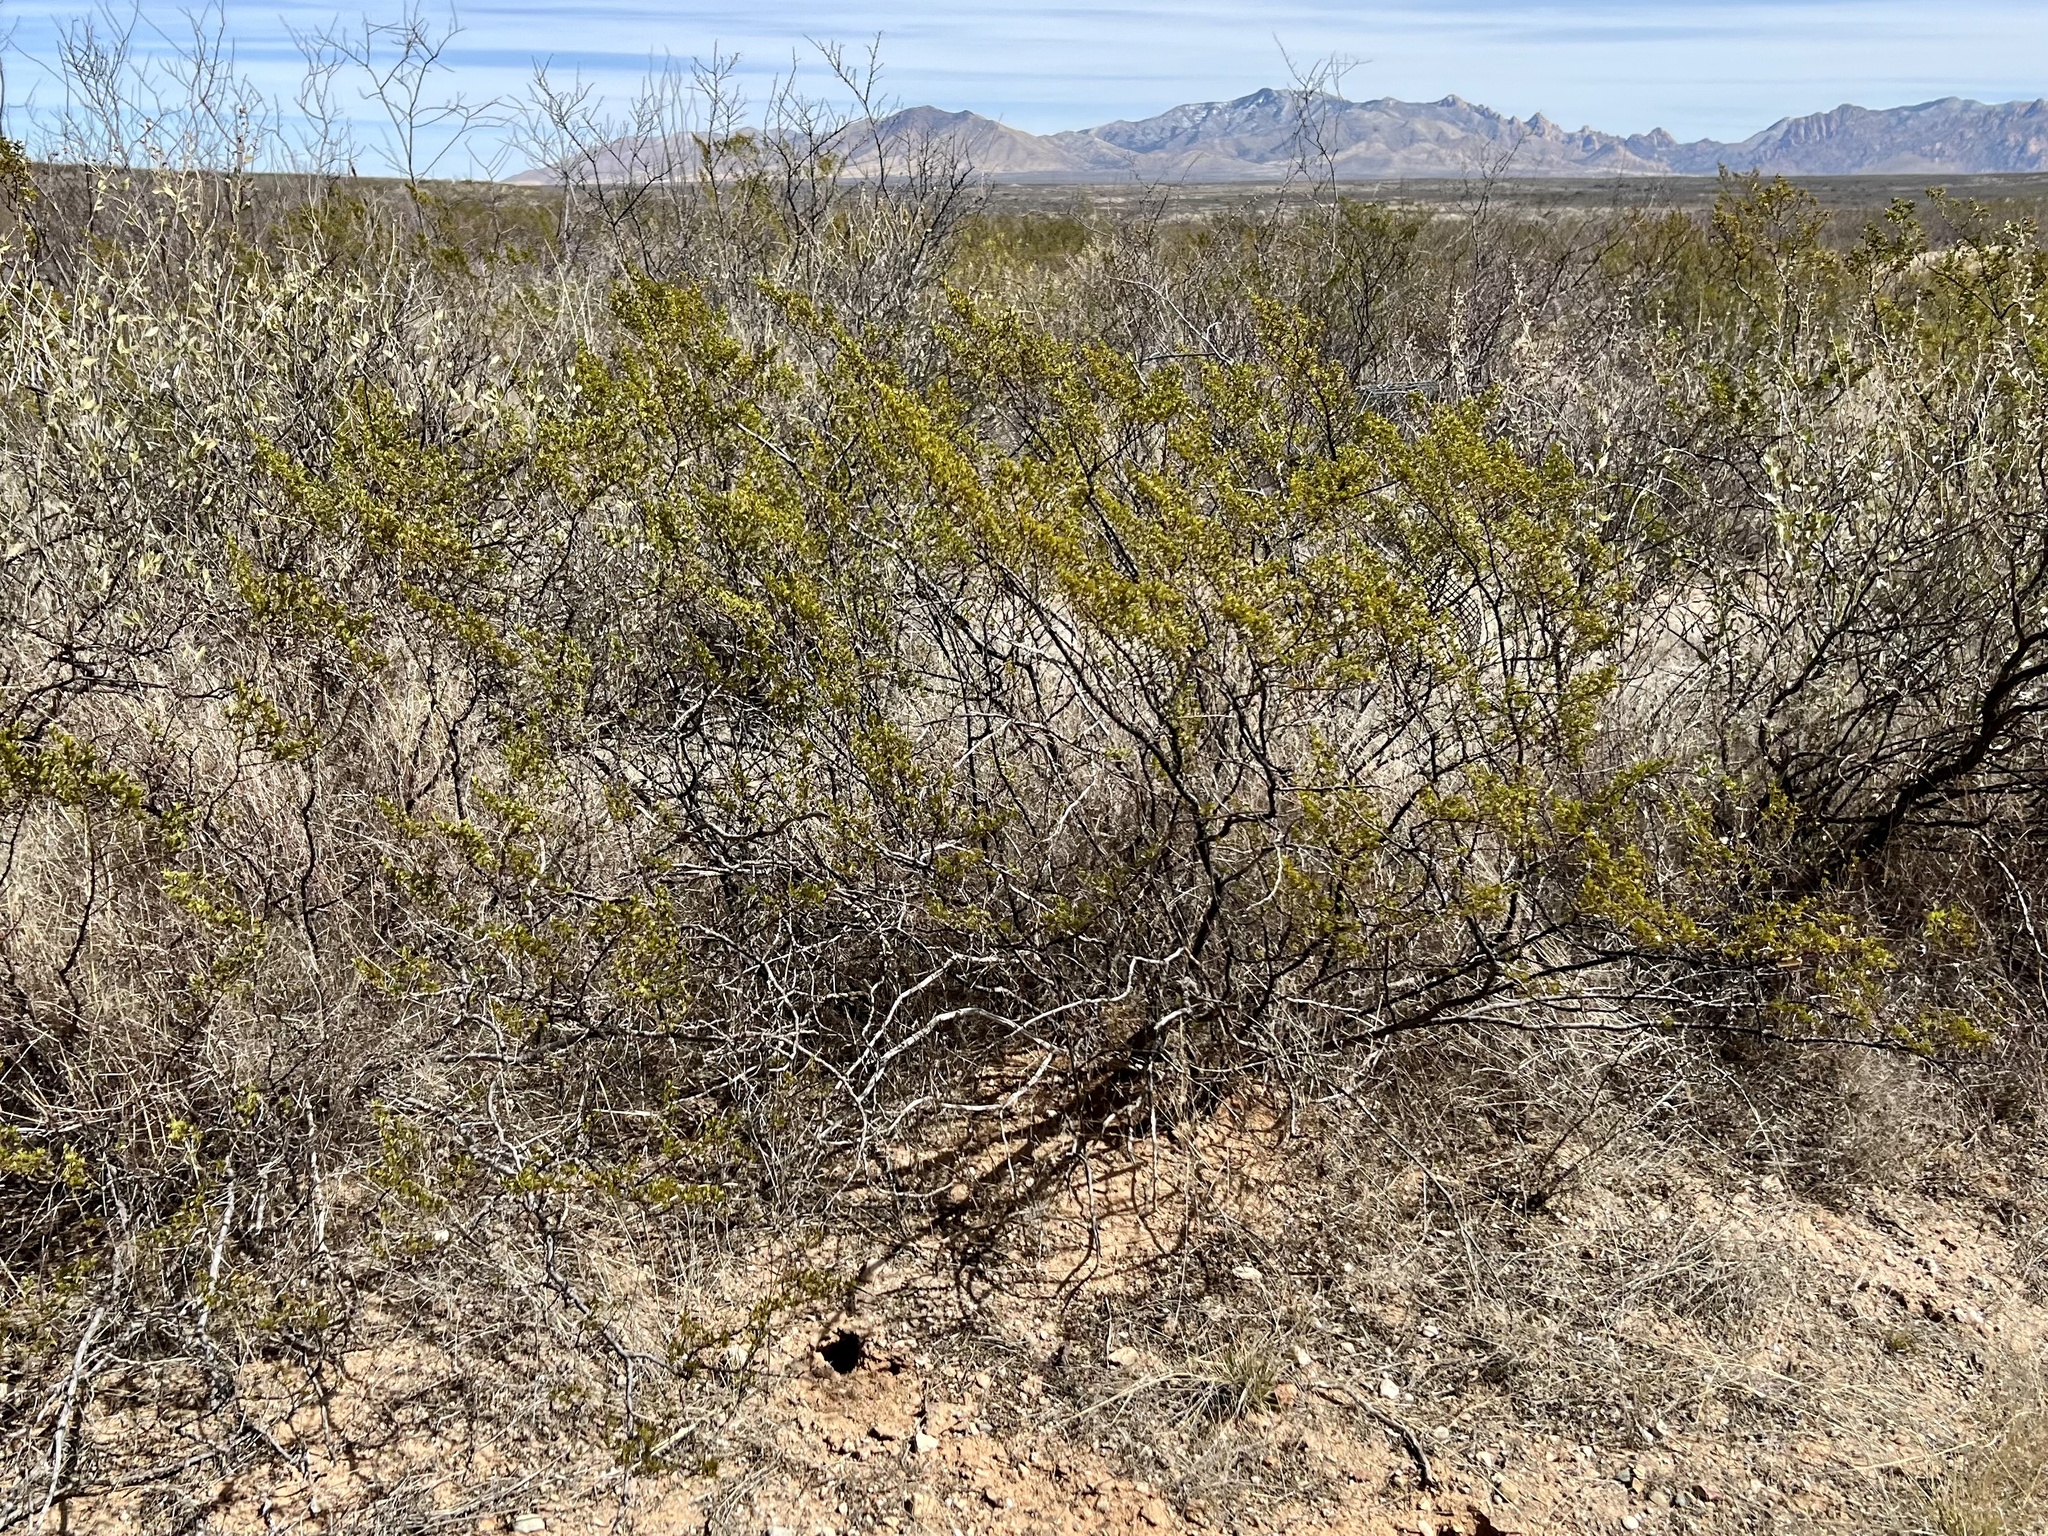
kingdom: Plantae
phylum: Tracheophyta
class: Magnoliopsida
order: Zygophyllales
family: Zygophyllaceae
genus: Larrea
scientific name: Larrea tridentata
